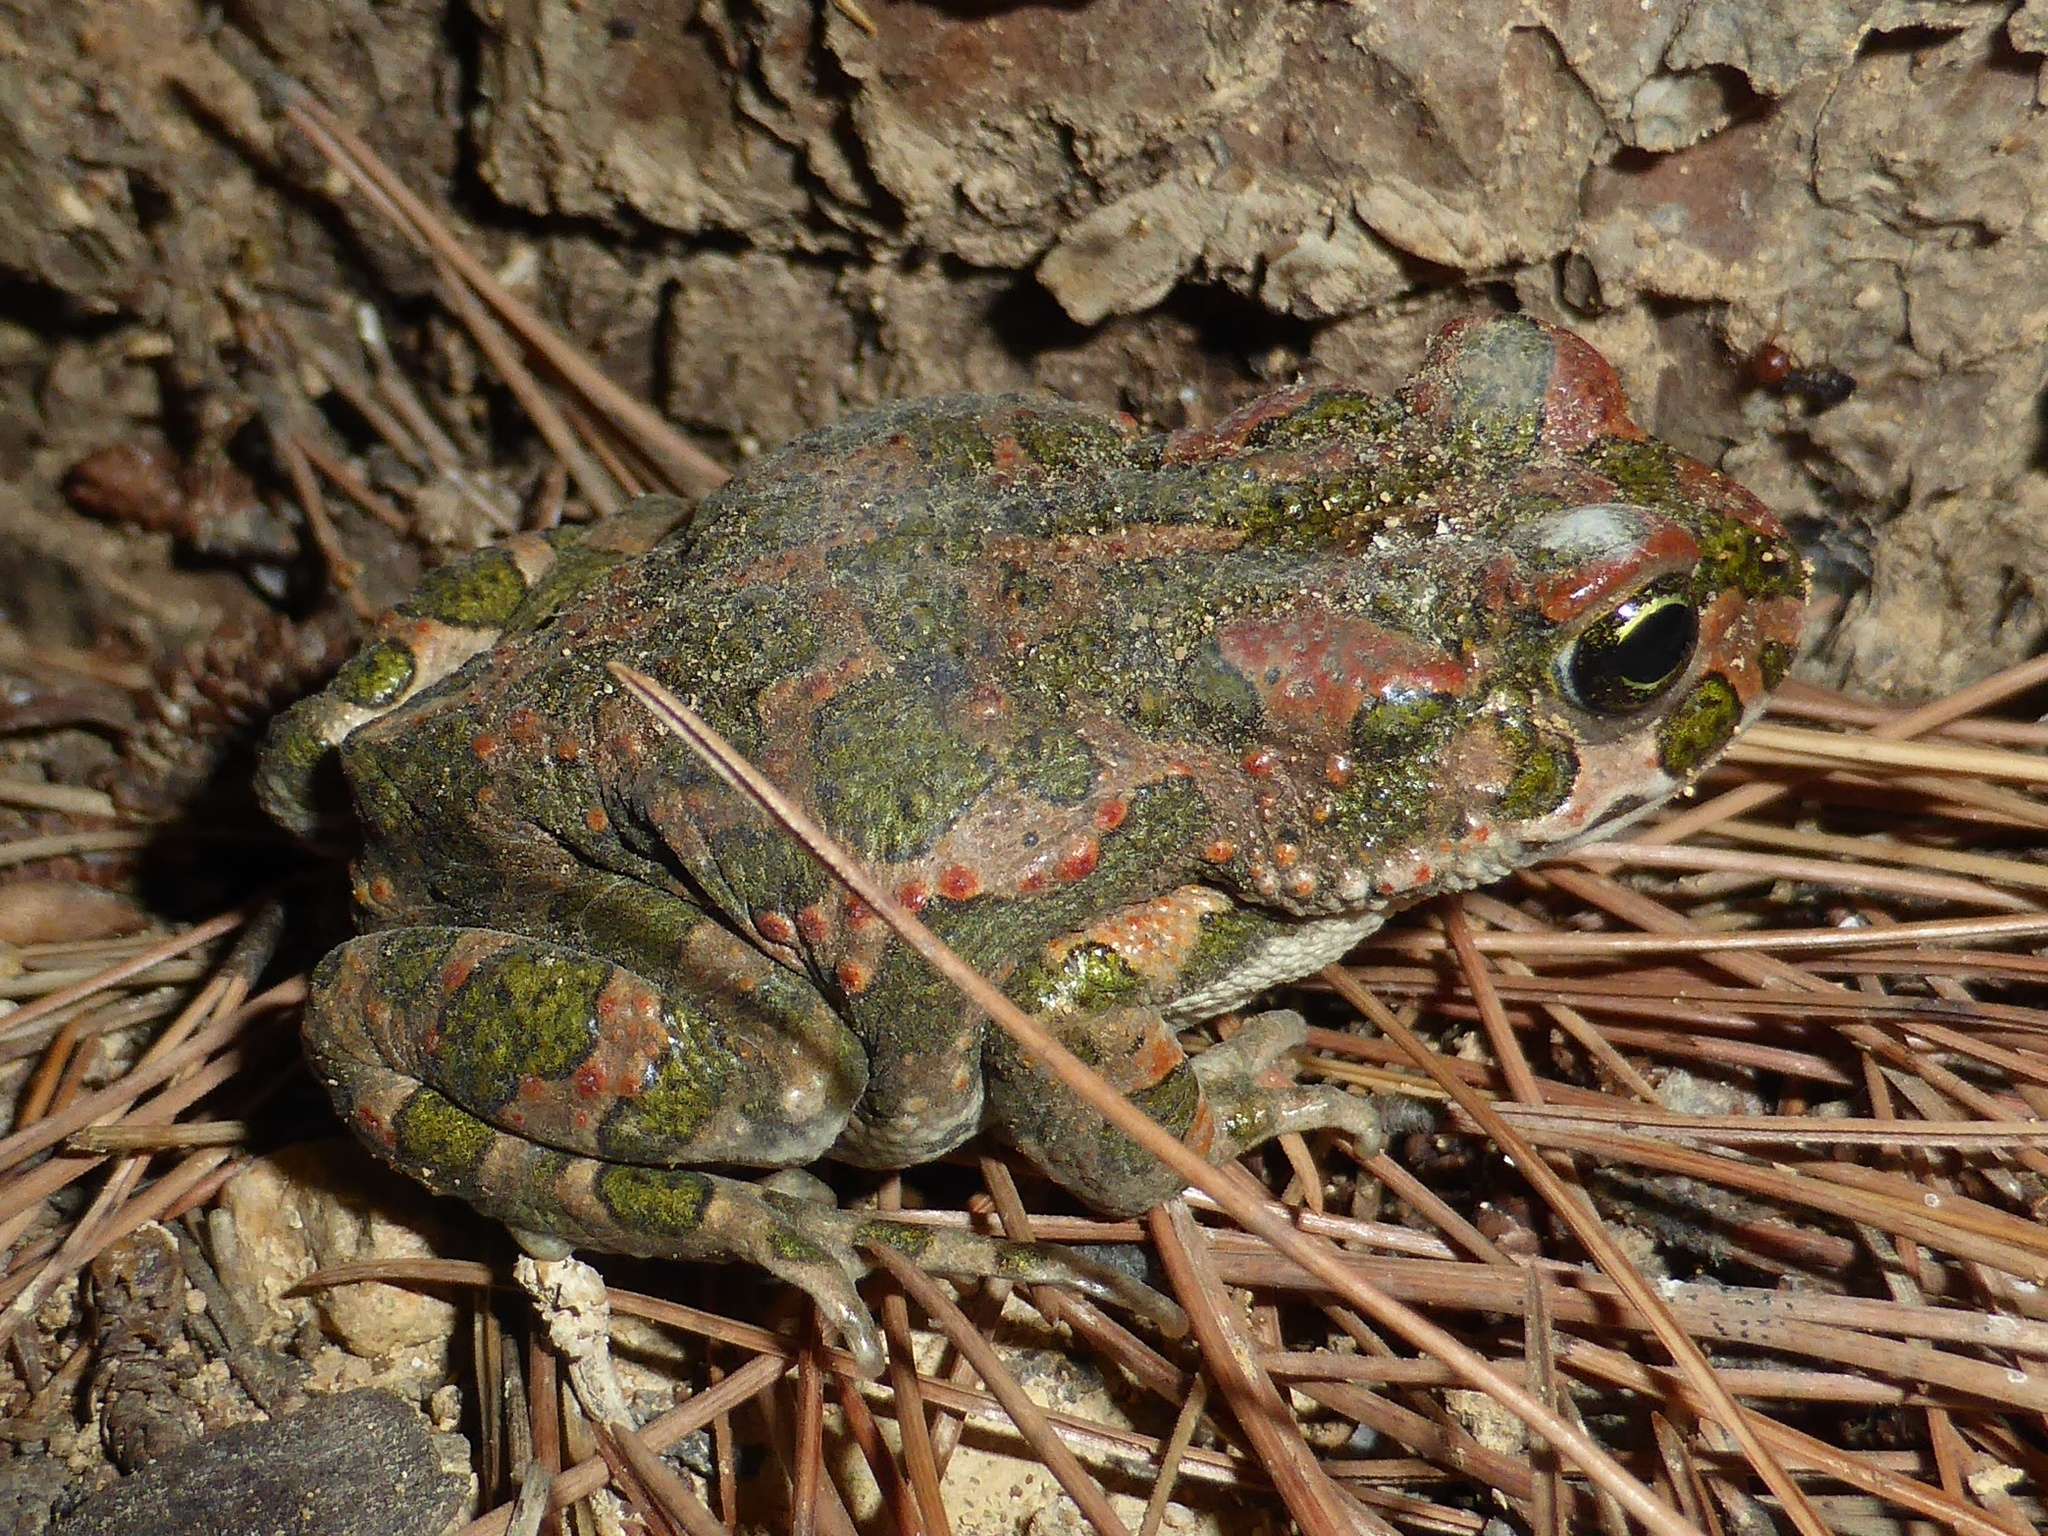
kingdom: Animalia
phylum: Chordata
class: Amphibia
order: Anura
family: Bufonidae
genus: Bufotes
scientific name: Bufotes viridis
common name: European green toad
